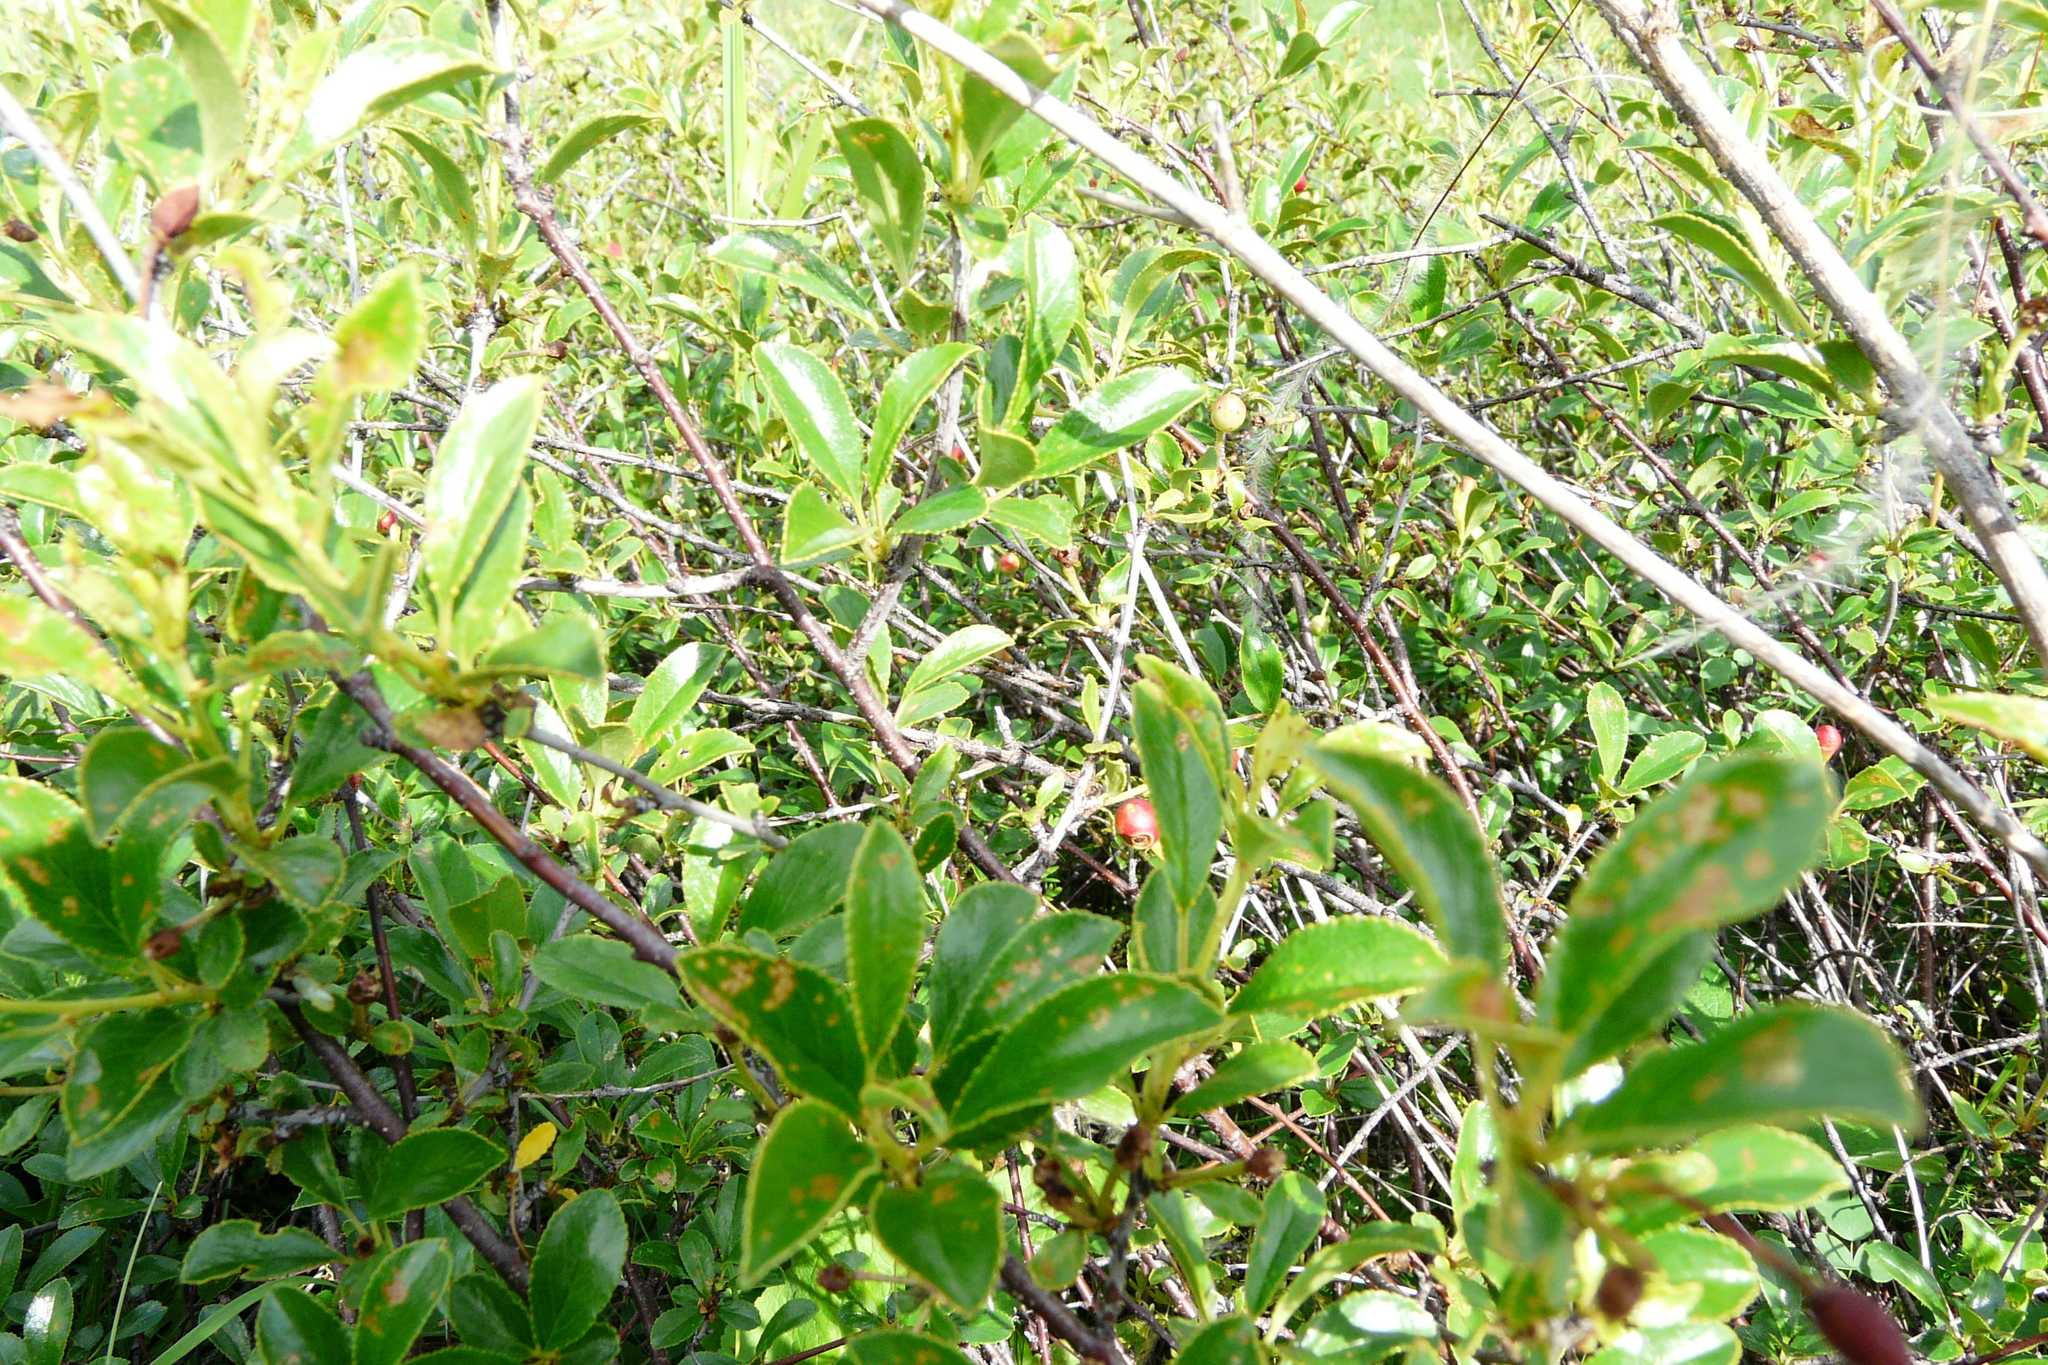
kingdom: Plantae
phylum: Tracheophyta
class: Magnoliopsida
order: Rosales
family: Rosaceae
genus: Prunus
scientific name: Prunus fruticosa
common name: European dwarf cherry
